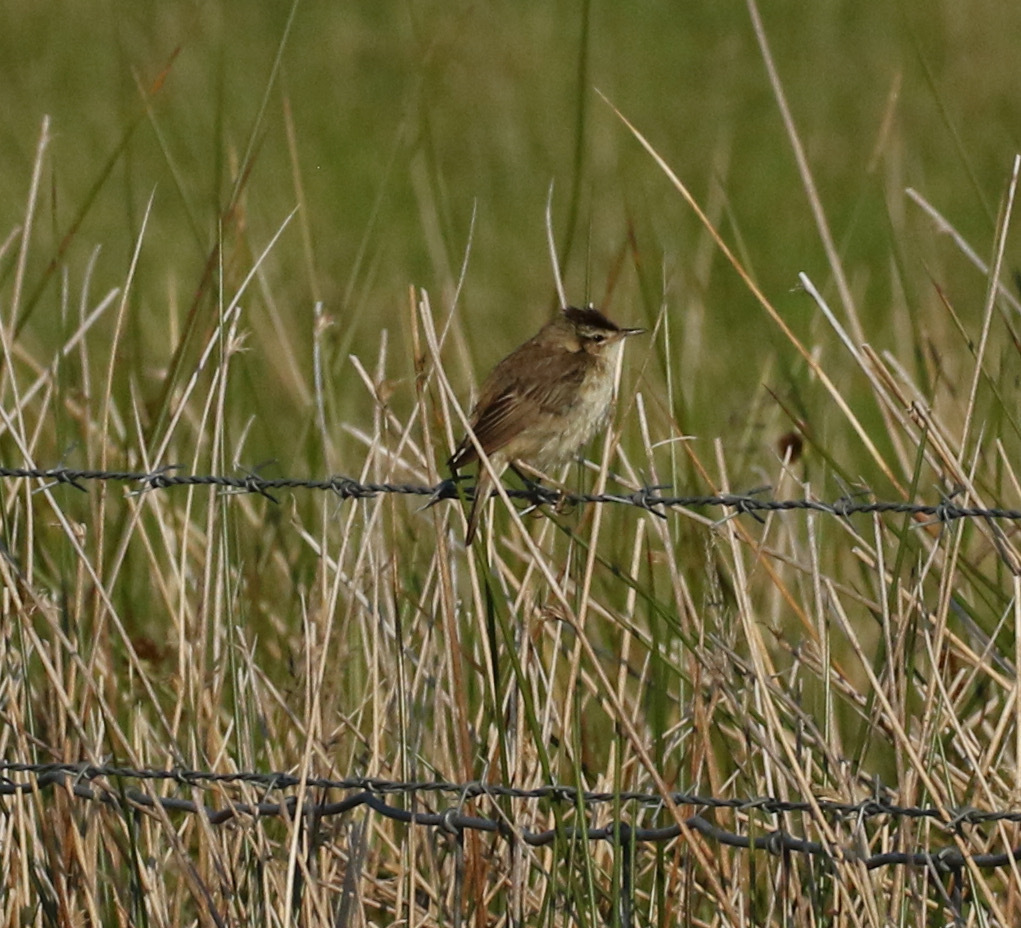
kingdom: Animalia
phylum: Chordata
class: Aves
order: Passeriformes
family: Acrocephalidae
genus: Acrocephalus
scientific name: Acrocephalus schoenobaenus
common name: Sedge warbler
